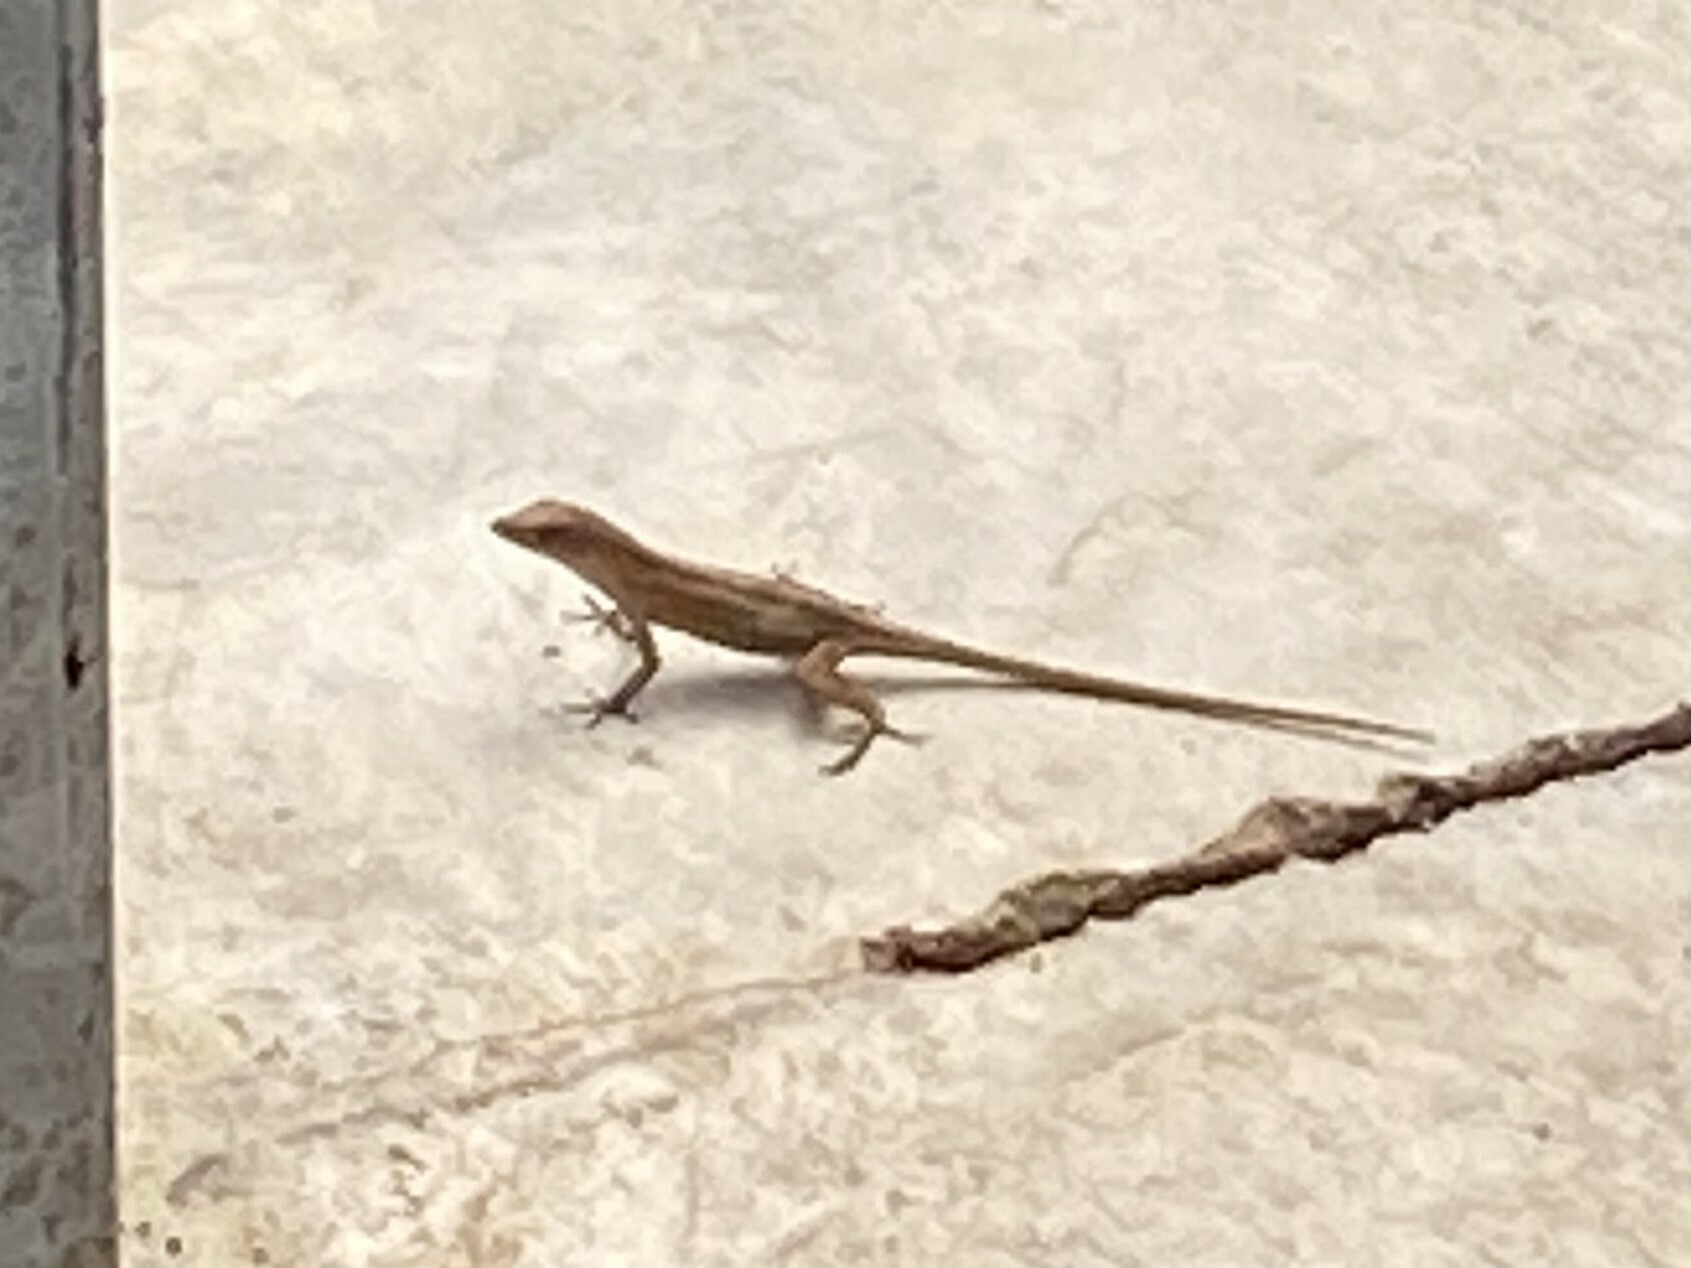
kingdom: Animalia
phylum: Chordata
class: Squamata
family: Dactyloidae
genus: Anolis
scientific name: Anolis sagrei
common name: Brown anole
